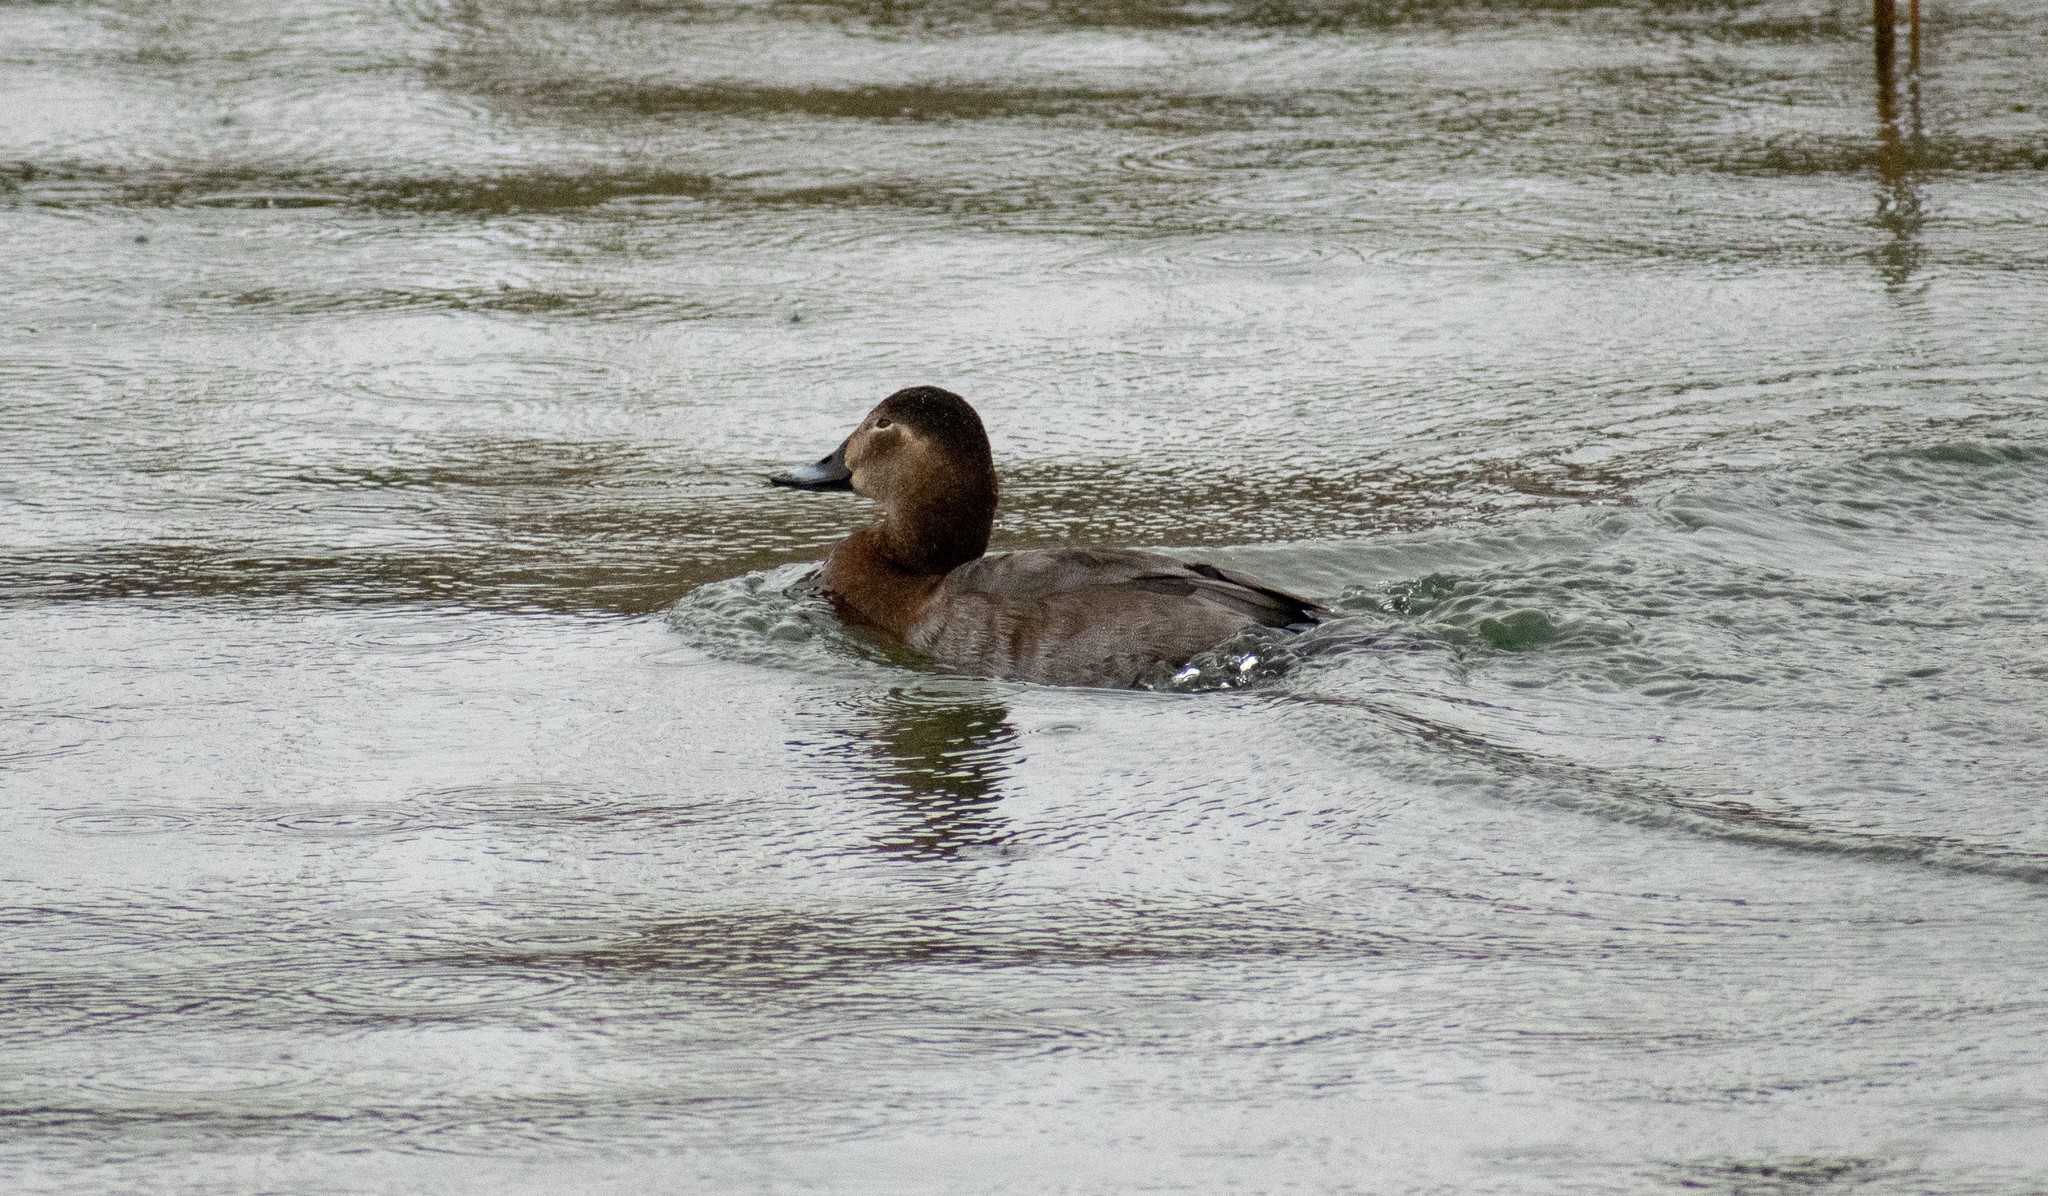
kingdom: Animalia
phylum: Chordata
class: Aves
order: Anseriformes
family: Anatidae
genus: Aythya
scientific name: Aythya ferina
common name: Common pochard
